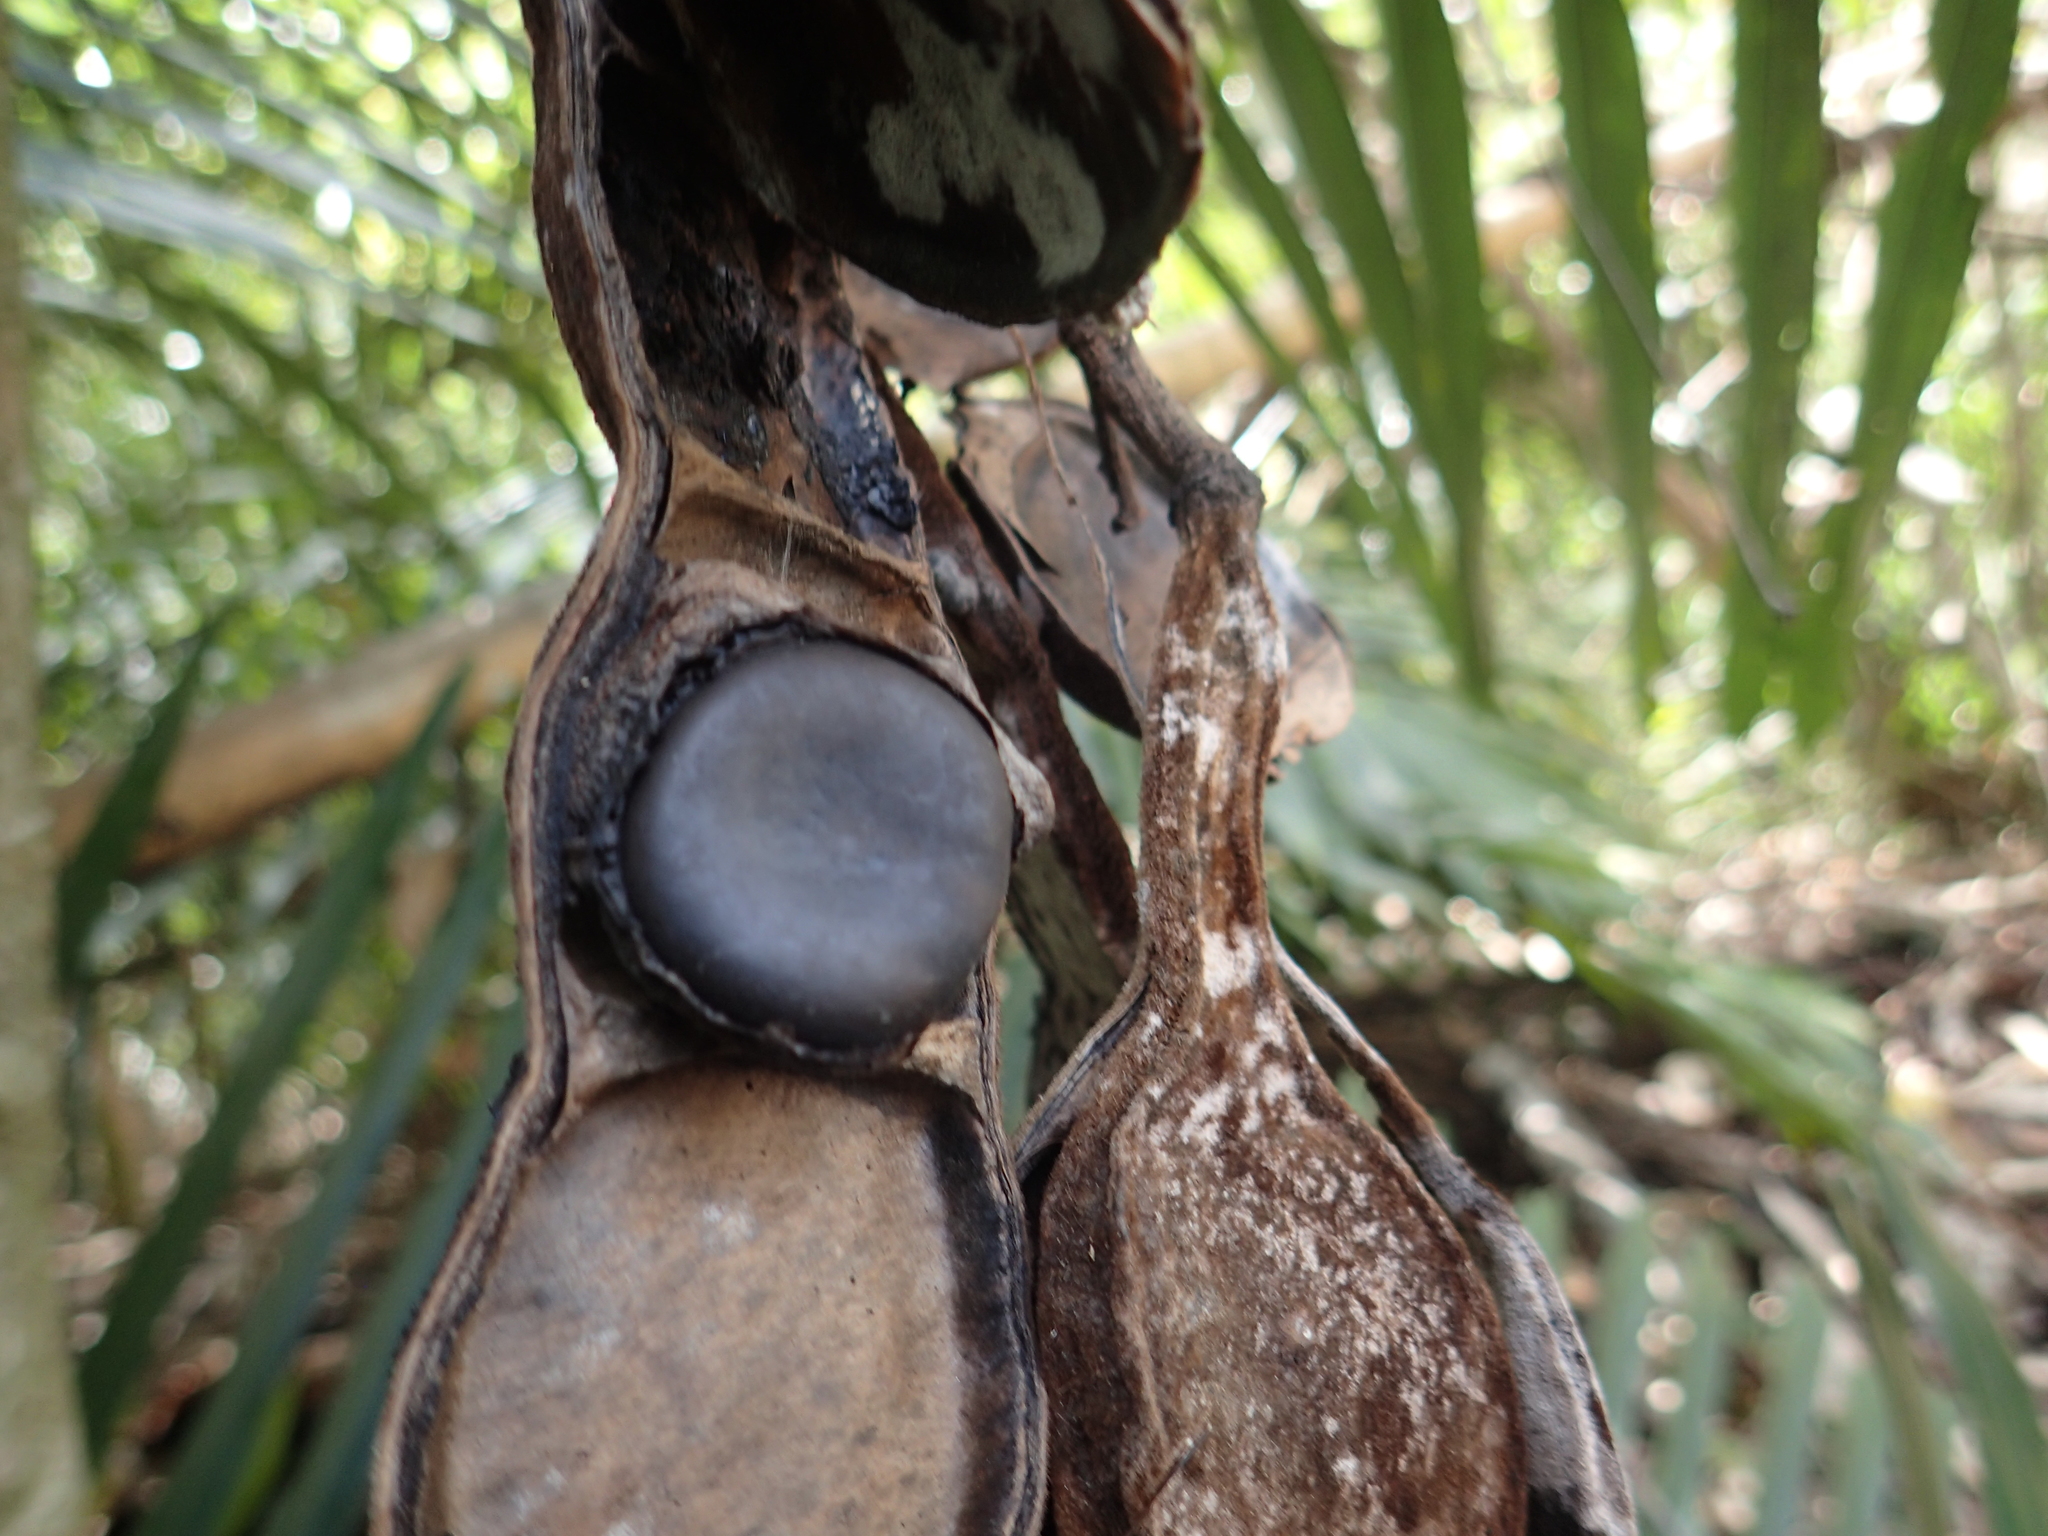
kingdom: Plantae
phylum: Tracheophyta
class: Magnoliopsida
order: Fabales
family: Fabaceae
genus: Mucuna
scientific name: Mucuna macrocarpa
